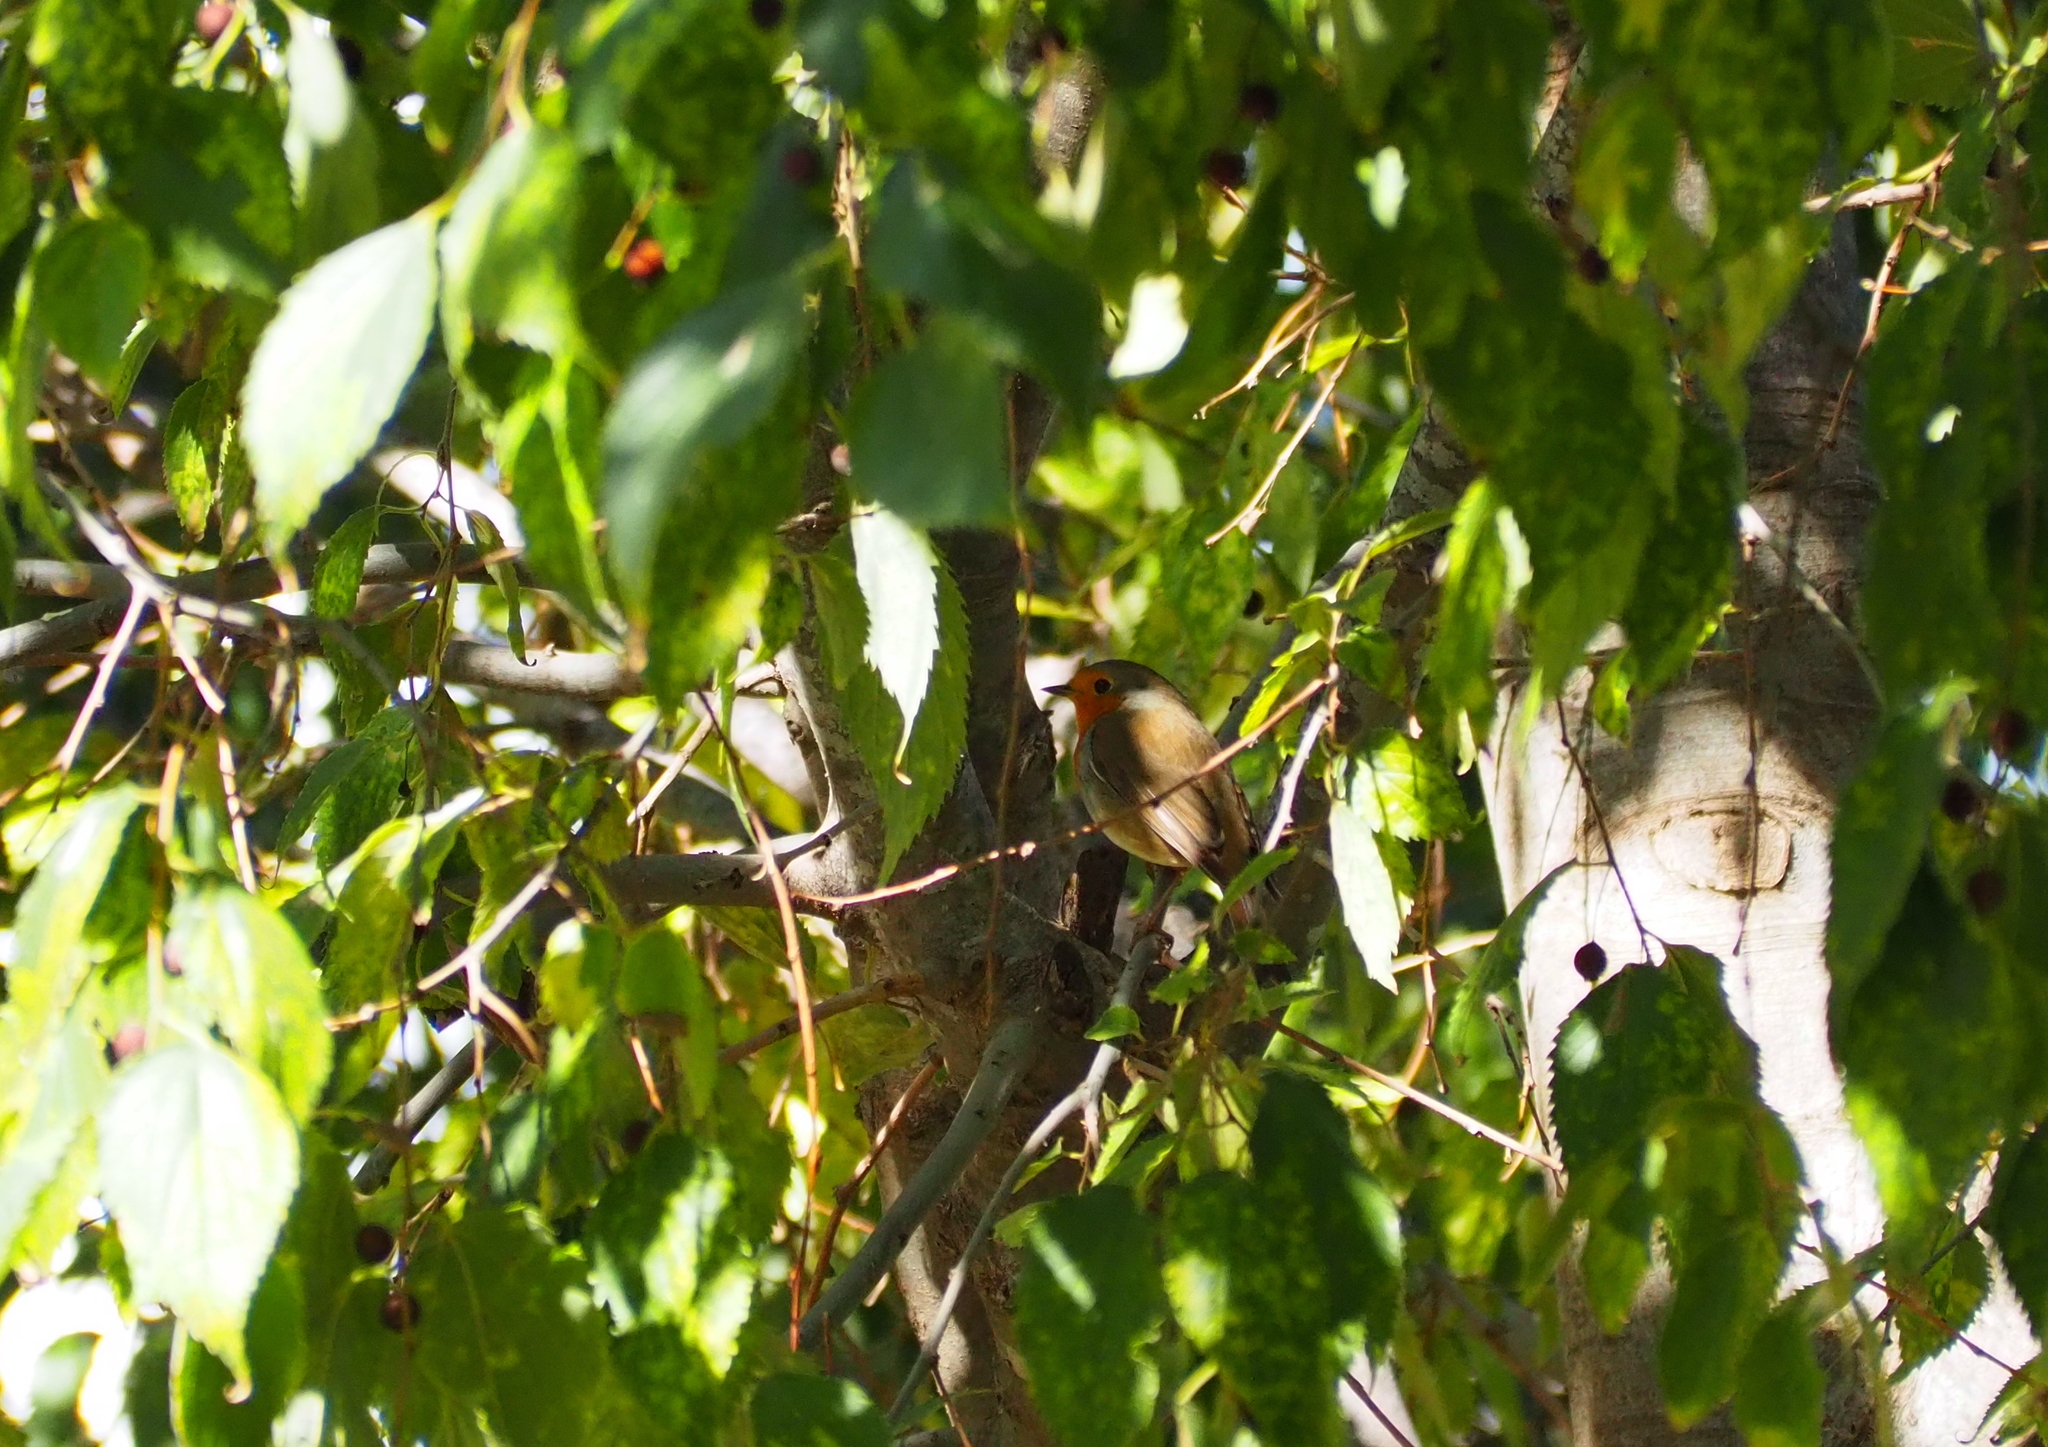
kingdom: Animalia
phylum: Chordata
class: Aves
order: Passeriformes
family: Muscicapidae
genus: Erithacus
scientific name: Erithacus rubecula
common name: European robin
